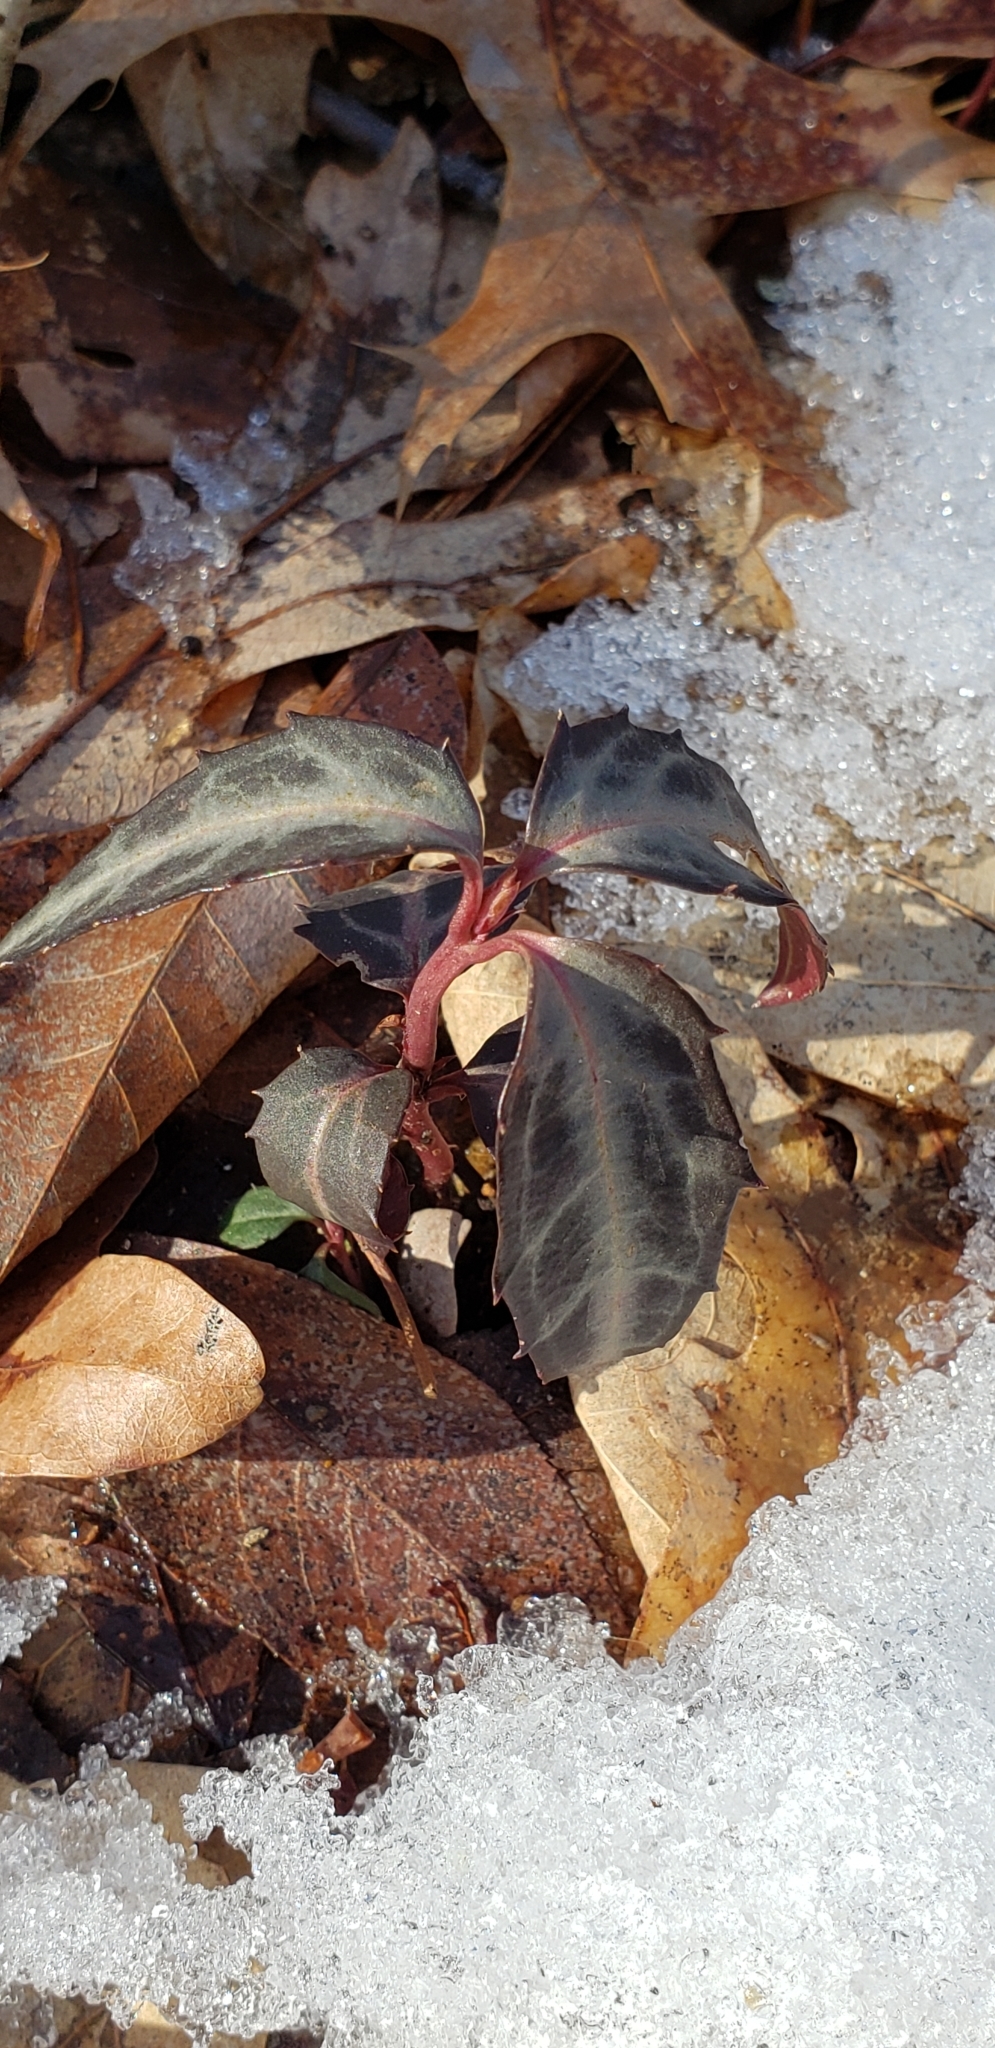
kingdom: Plantae
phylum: Tracheophyta
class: Magnoliopsida
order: Ericales
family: Ericaceae
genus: Chimaphila
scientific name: Chimaphila maculata
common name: Spotted pipsissewa
